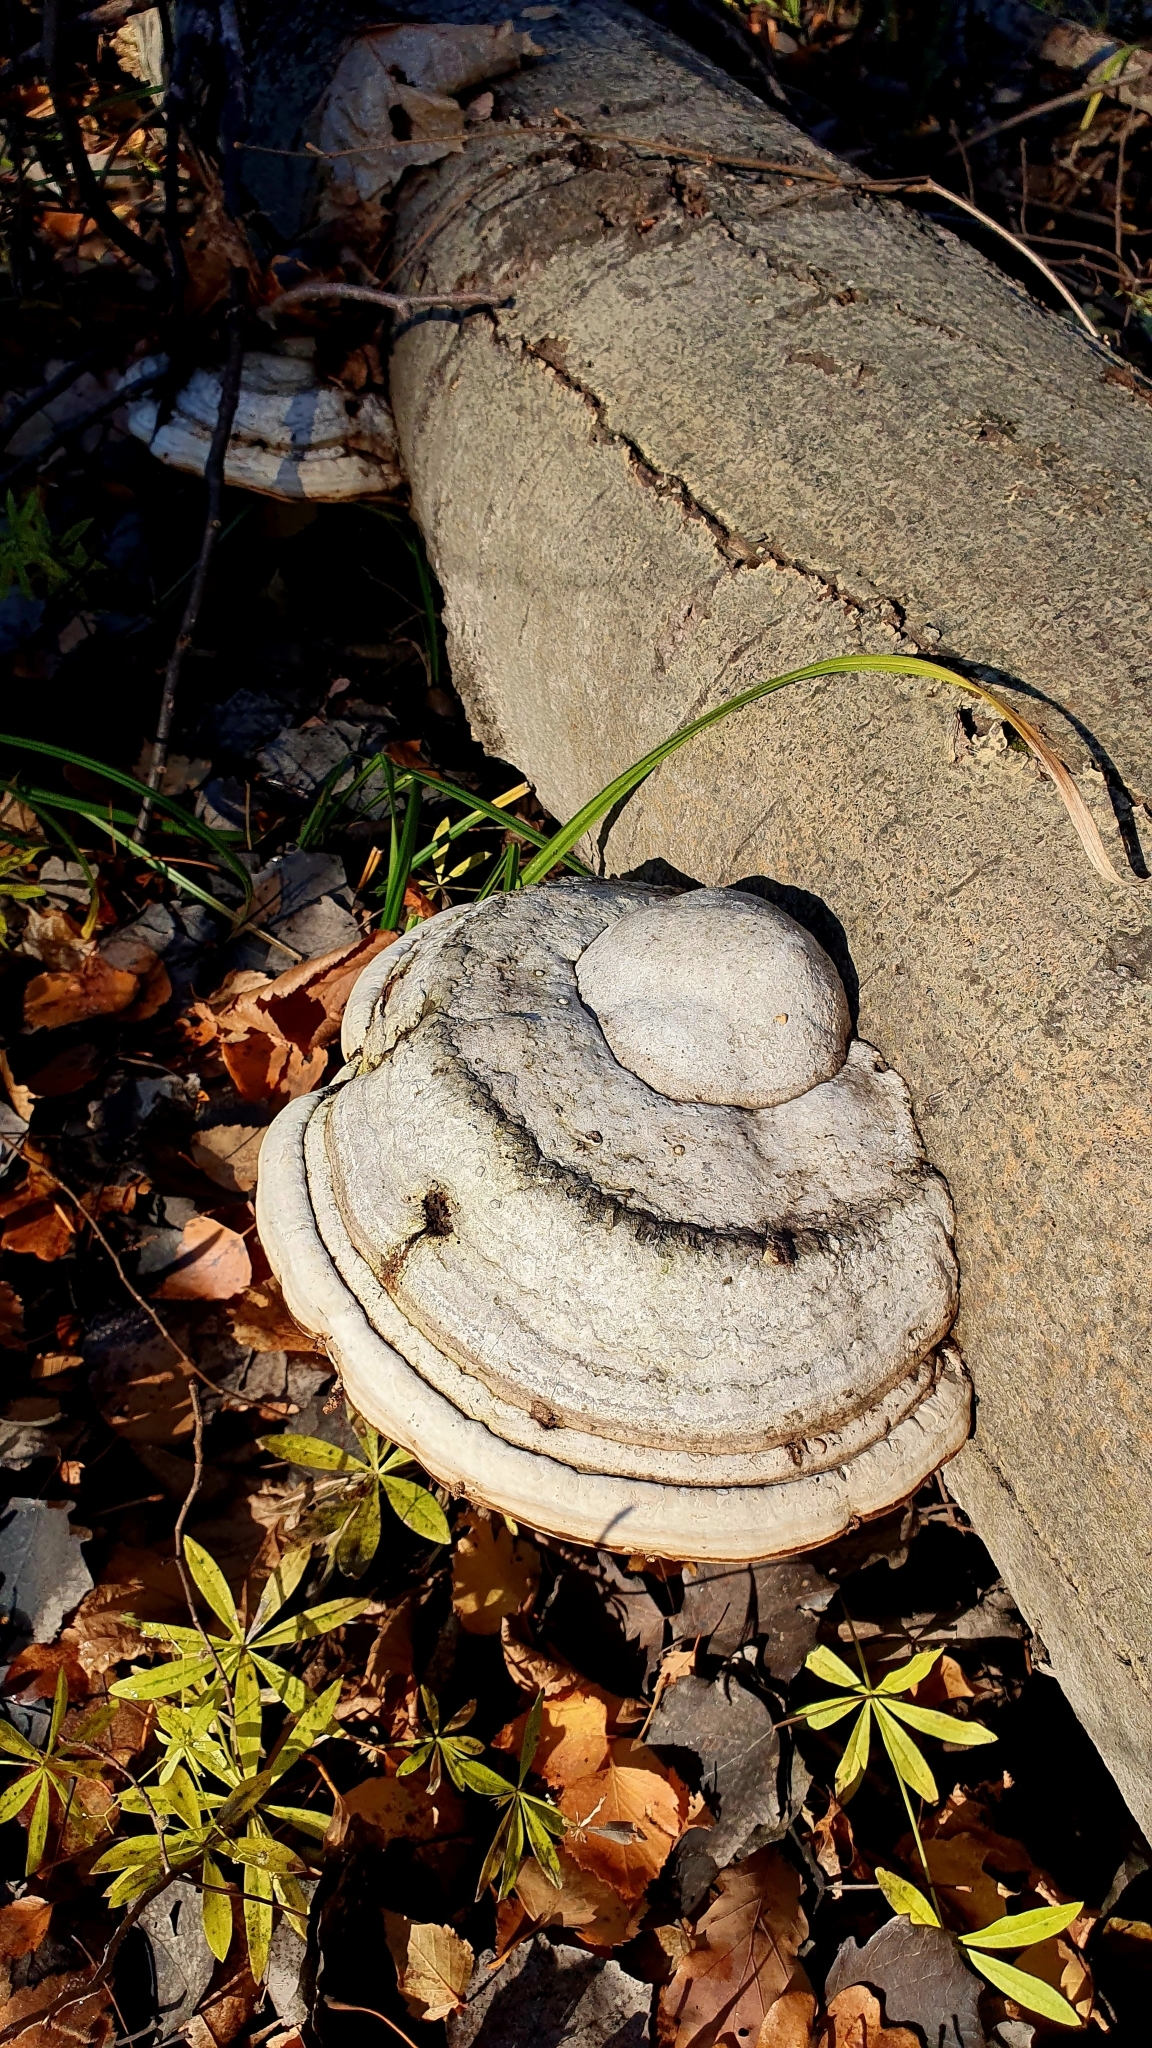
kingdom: Fungi
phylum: Basidiomycota
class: Agaricomycetes
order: Polyporales
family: Polyporaceae
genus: Fomes
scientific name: Fomes fomentarius
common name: Hoof fungus
